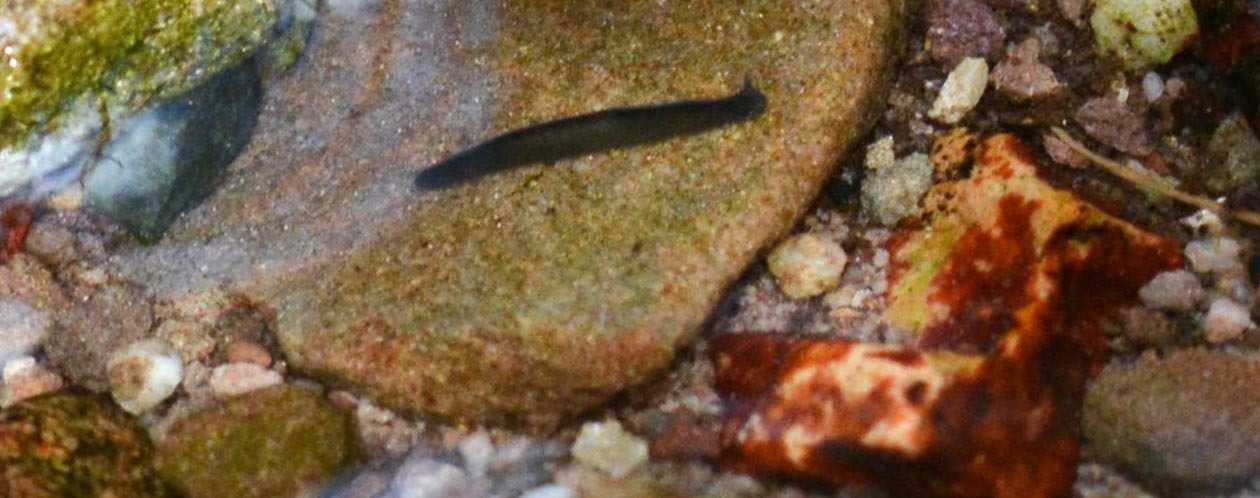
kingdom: Animalia
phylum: Platyhelminthes
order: Tricladida
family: Planariidae
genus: Polycelis
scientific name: Polycelis felina
